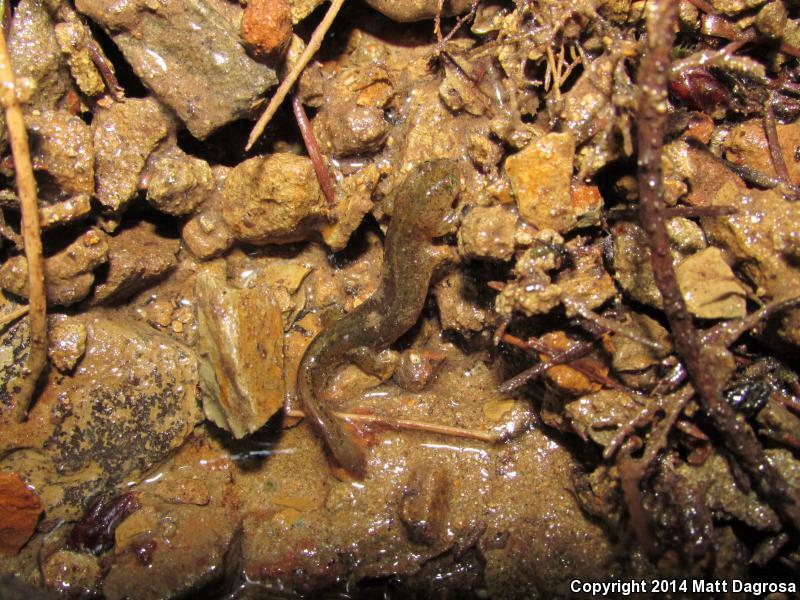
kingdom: Animalia
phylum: Chordata
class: Amphibia
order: Caudata
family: Rhyacotritonidae
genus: Rhyacotriton
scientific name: Rhyacotriton variegatus
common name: Southern torrent salamander
